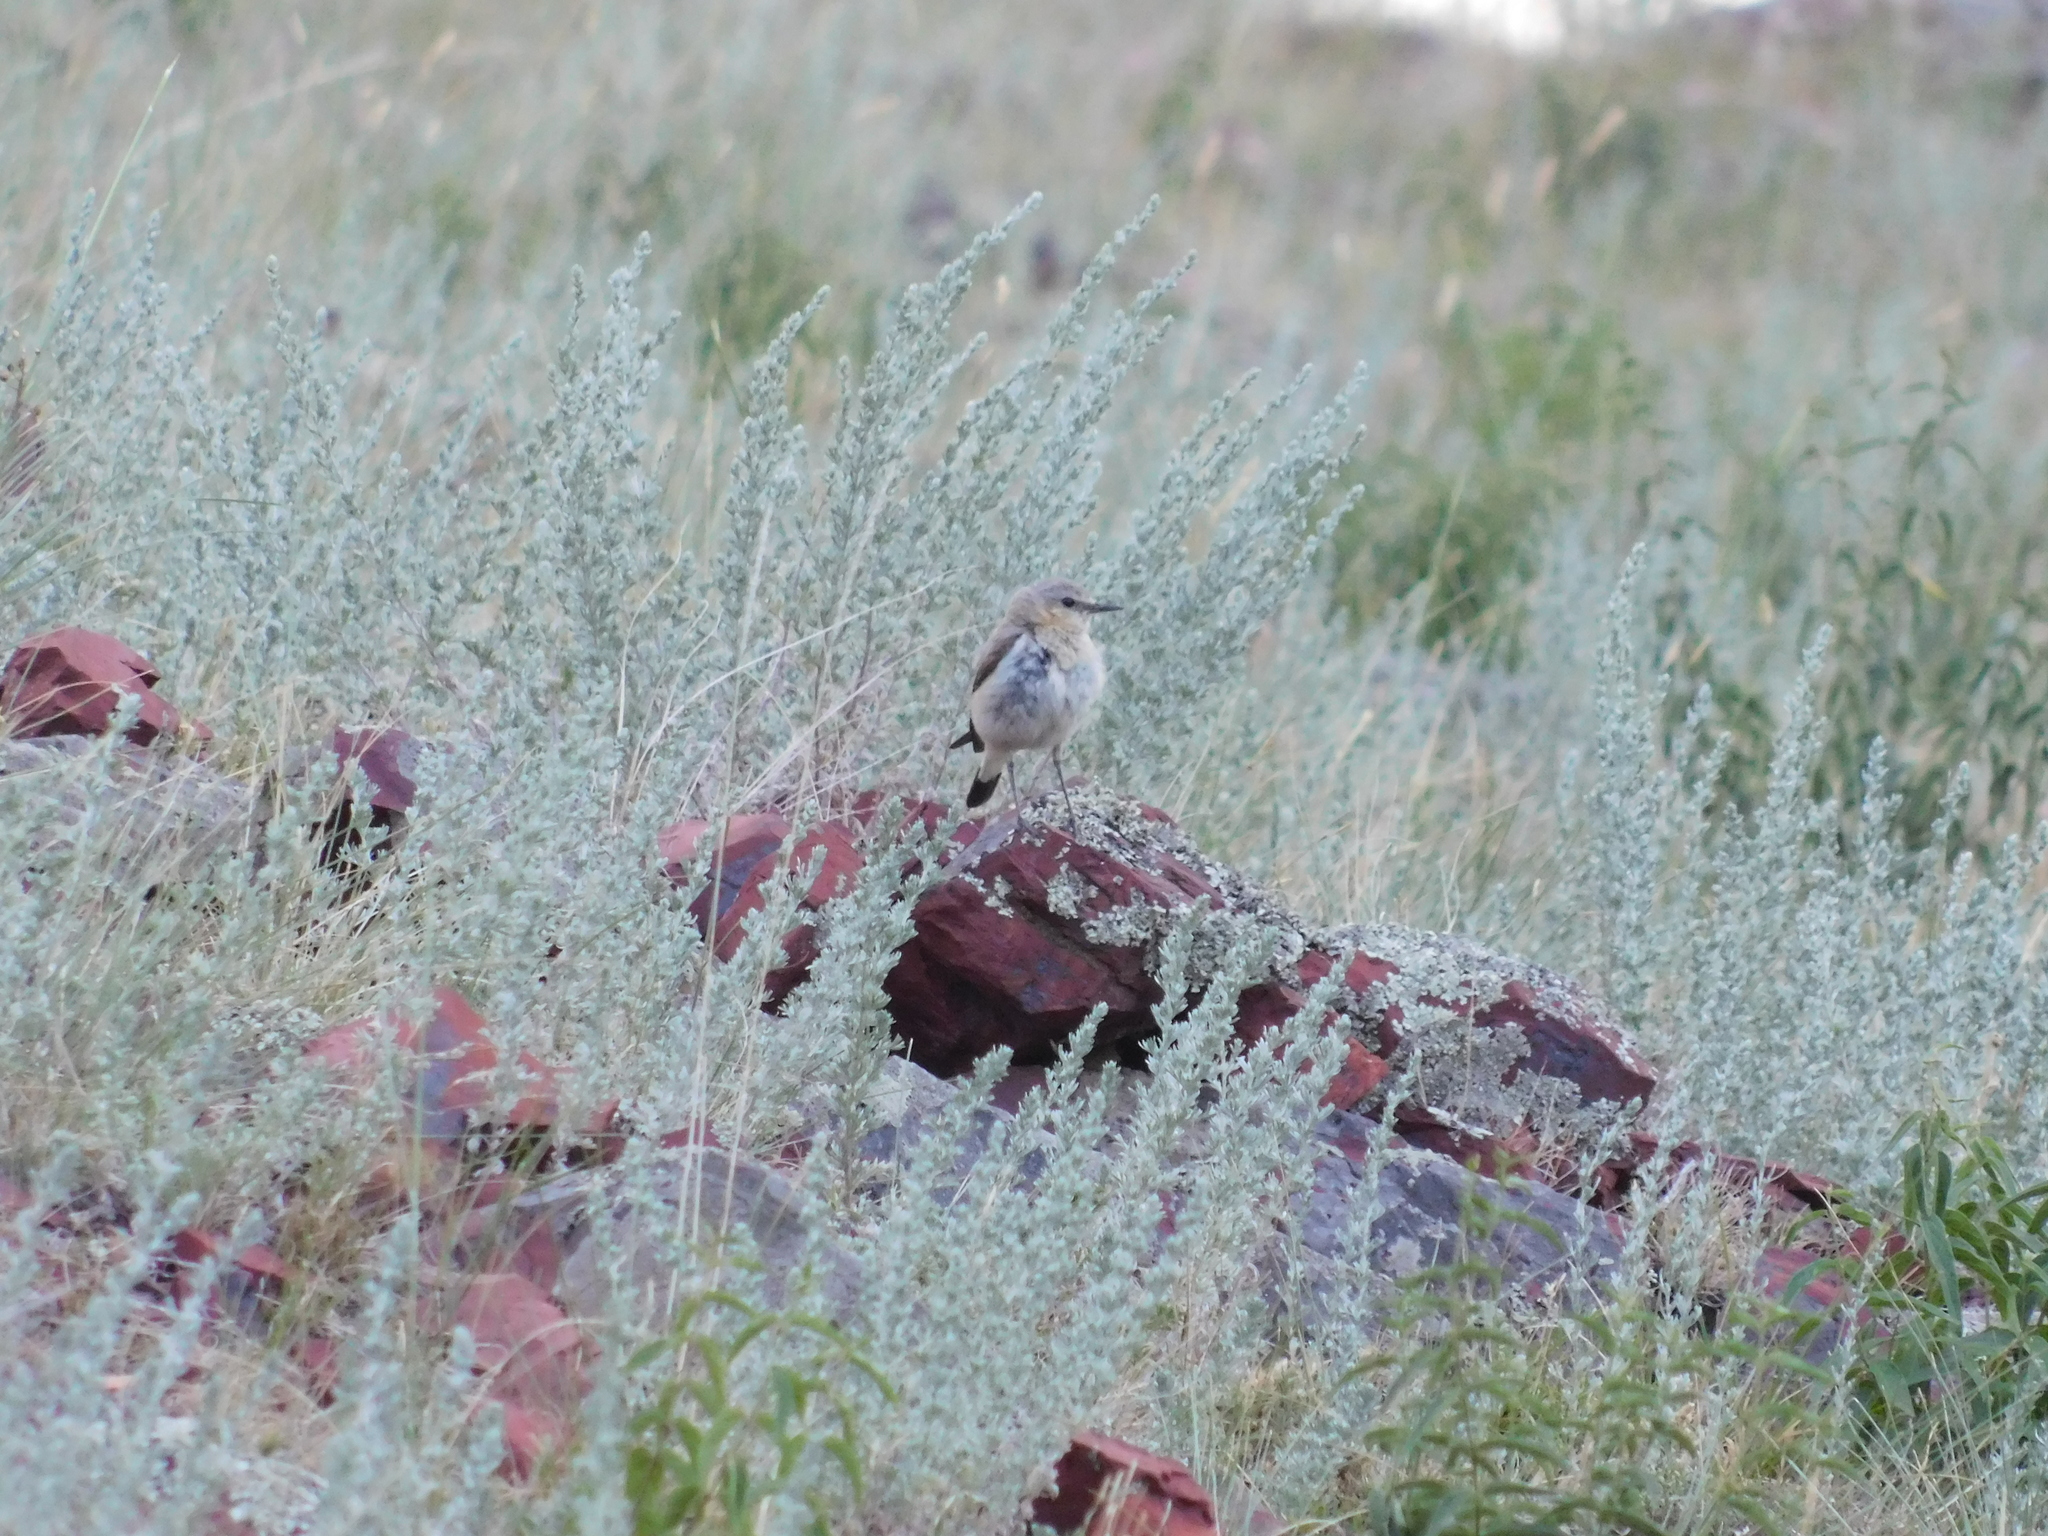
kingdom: Animalia
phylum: Chordata
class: Aves
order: Passeriformes
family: Muscicapidae
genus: Oenanthe
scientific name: Oenanthe oenanthe
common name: Northern wheatear
